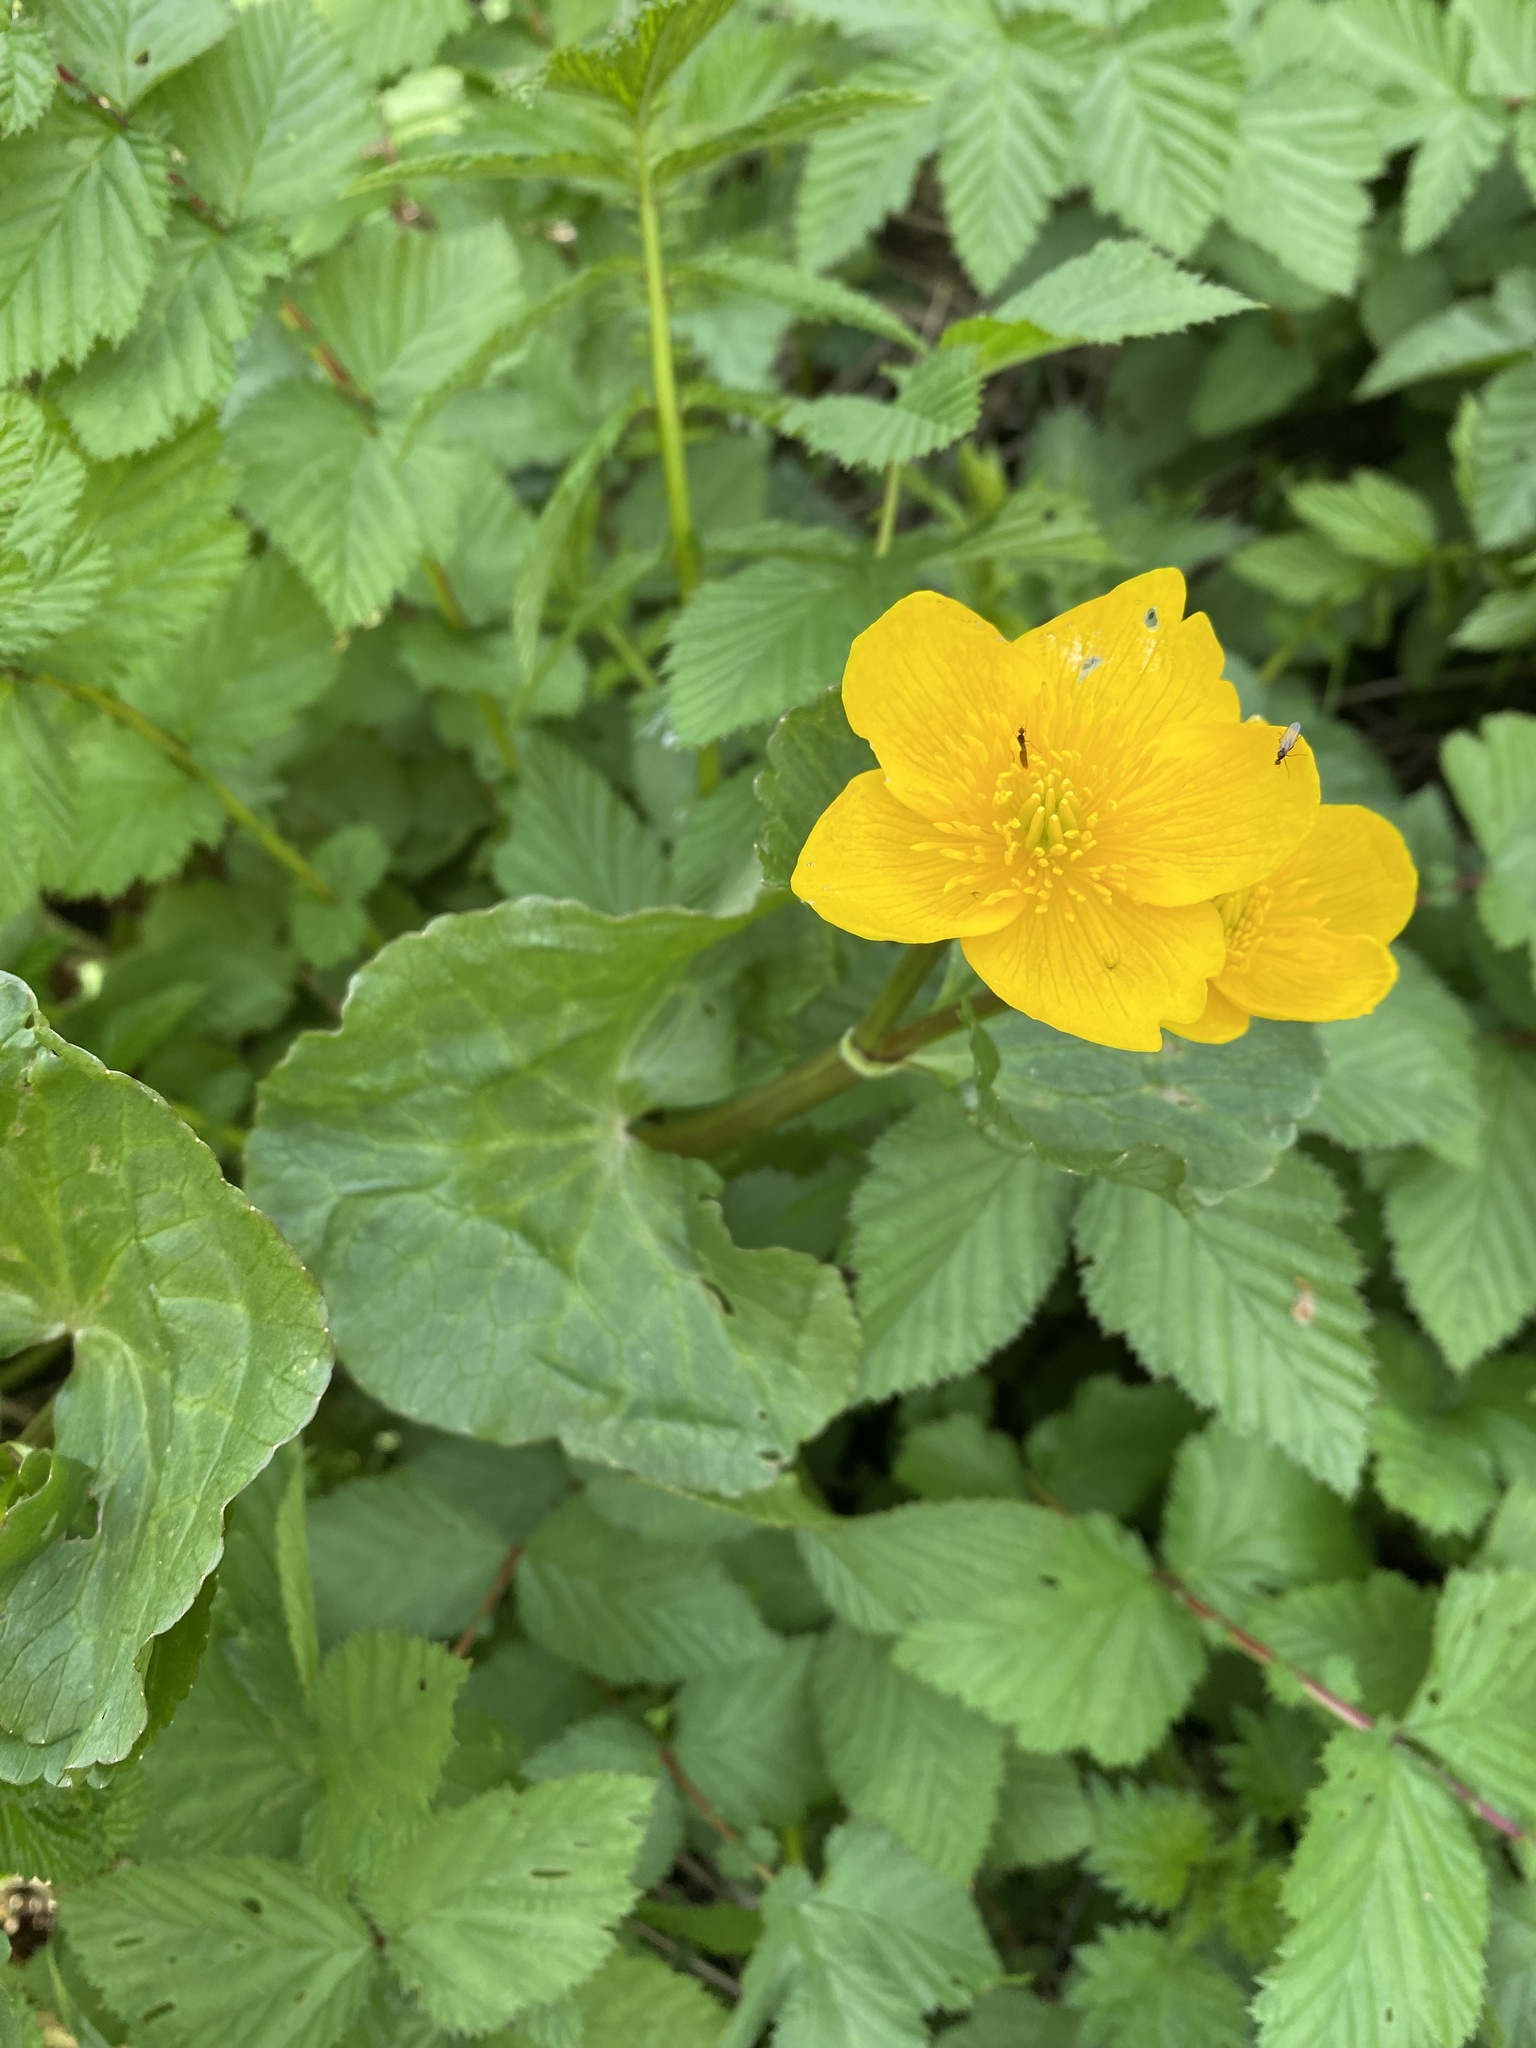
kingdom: Plantae
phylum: Tracheophyta
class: Magnoliopsida
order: Ranunculales
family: Ranunculaceae
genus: Caltha
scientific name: Caltha palustris
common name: Marsh marigold
